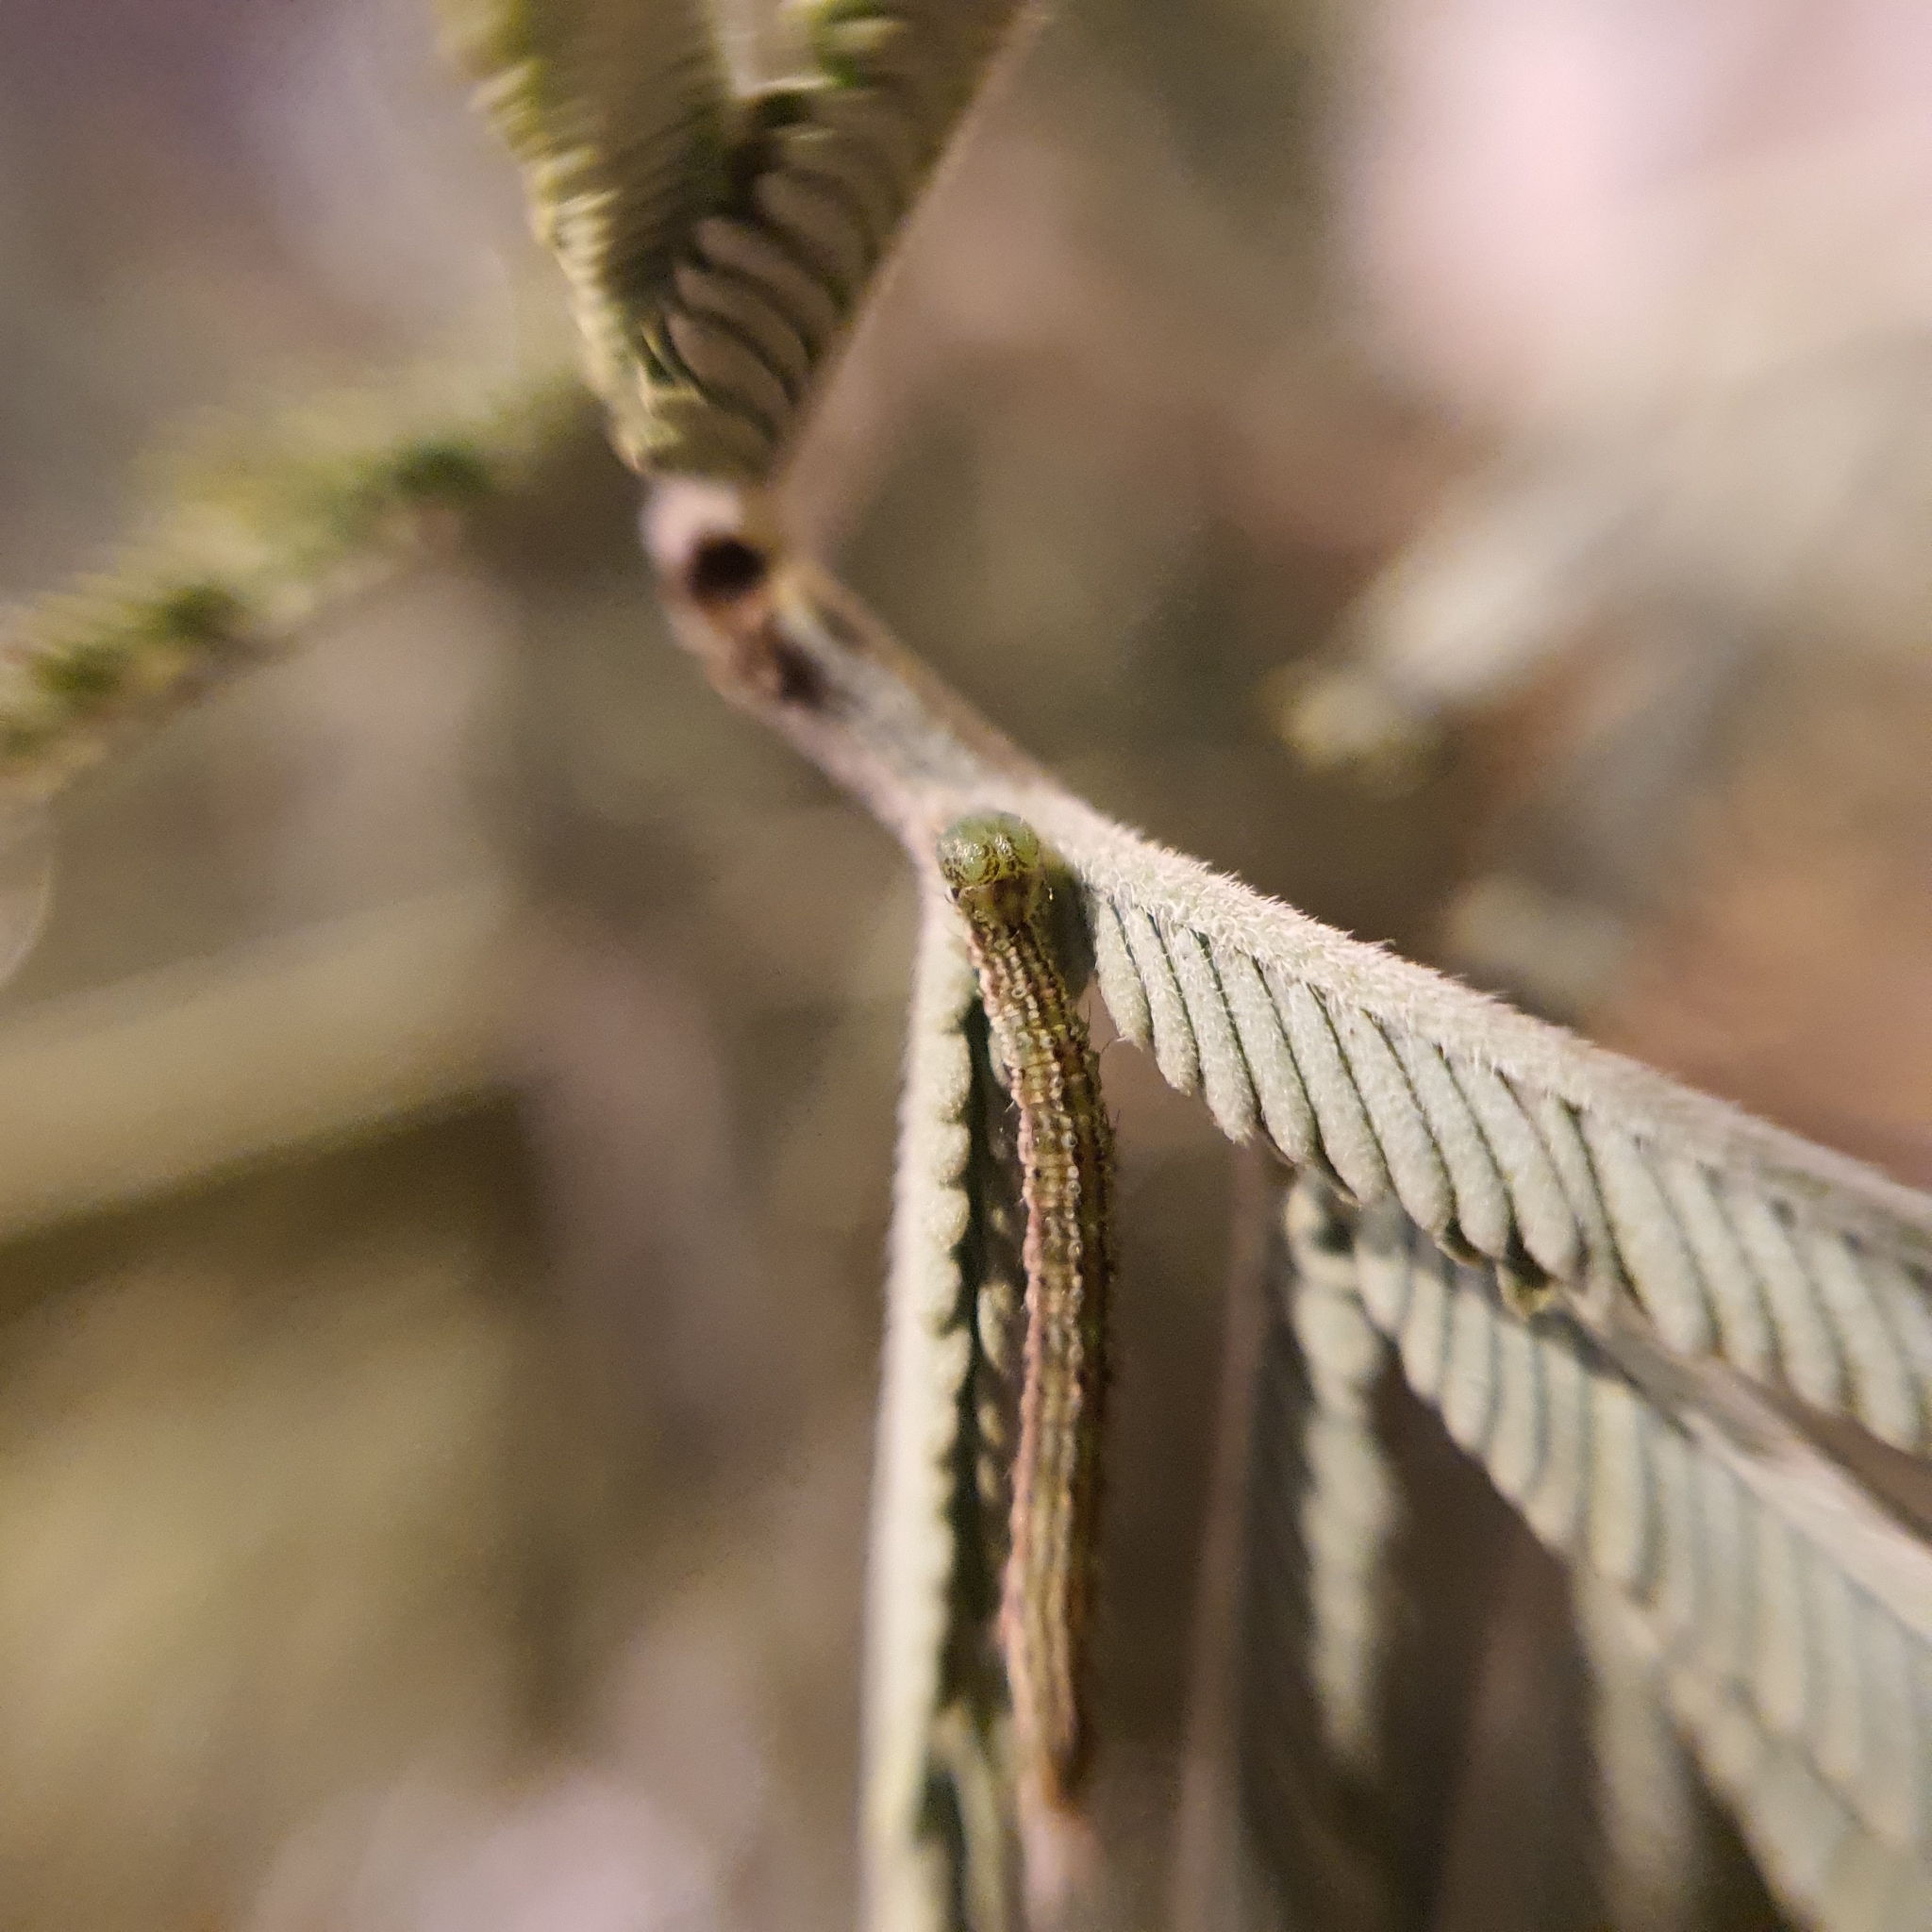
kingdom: Animalia
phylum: Arthropoda
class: Insecta
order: Lepidoptera
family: Geometridae
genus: Microdes
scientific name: Microdes squamulata
